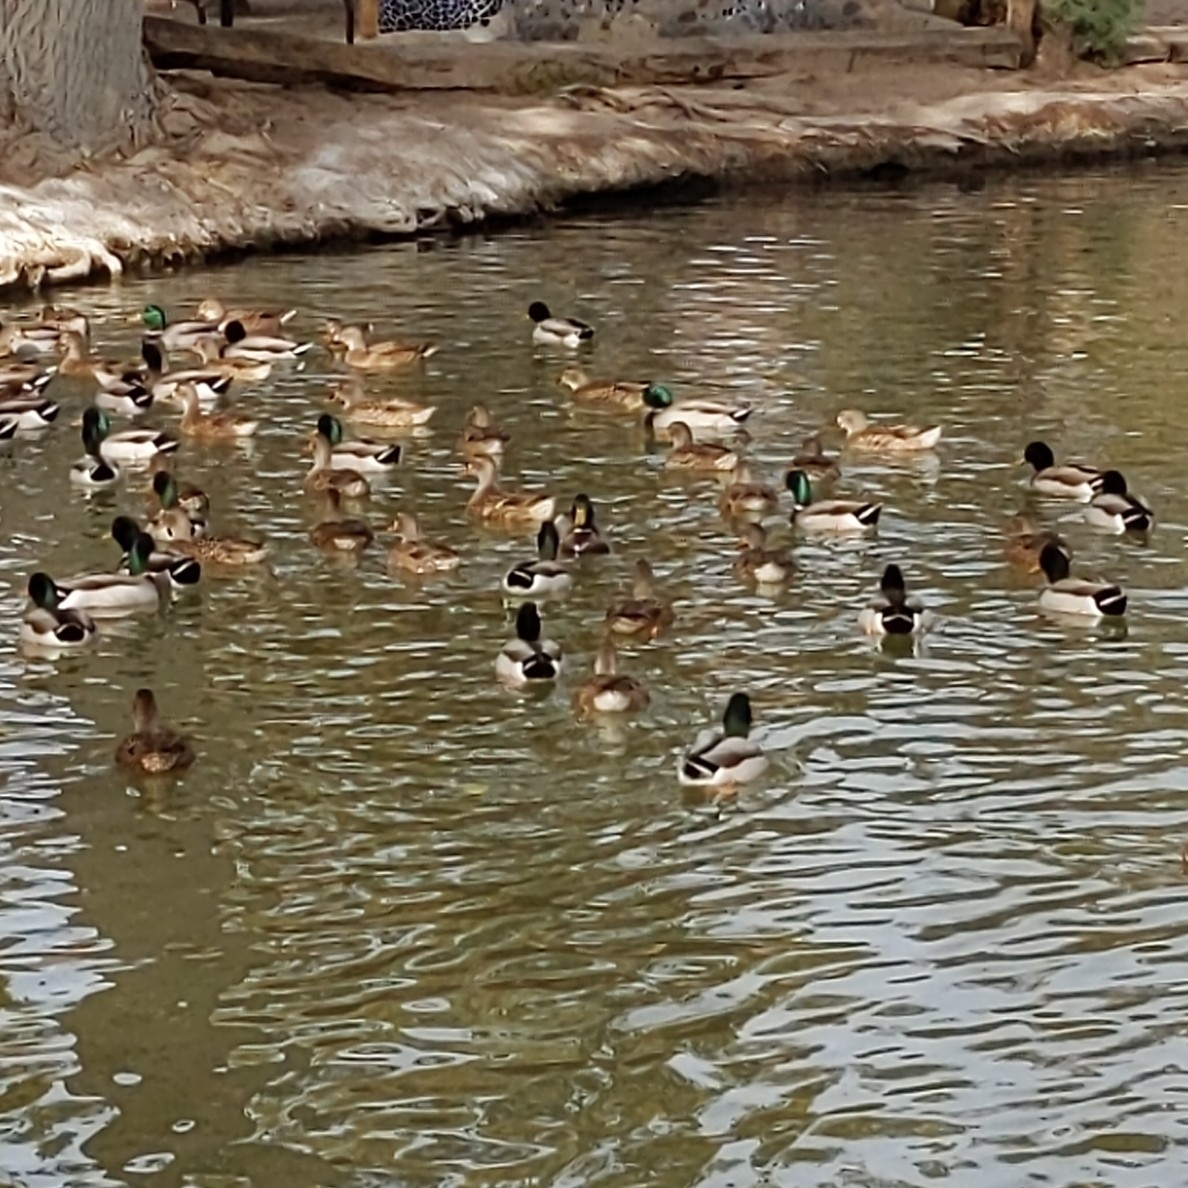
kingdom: Animalia
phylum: Chordata
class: Aves
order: Anseriformes
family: Anatidae
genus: Anas
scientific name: Anas platyrhynchos
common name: Mallard
